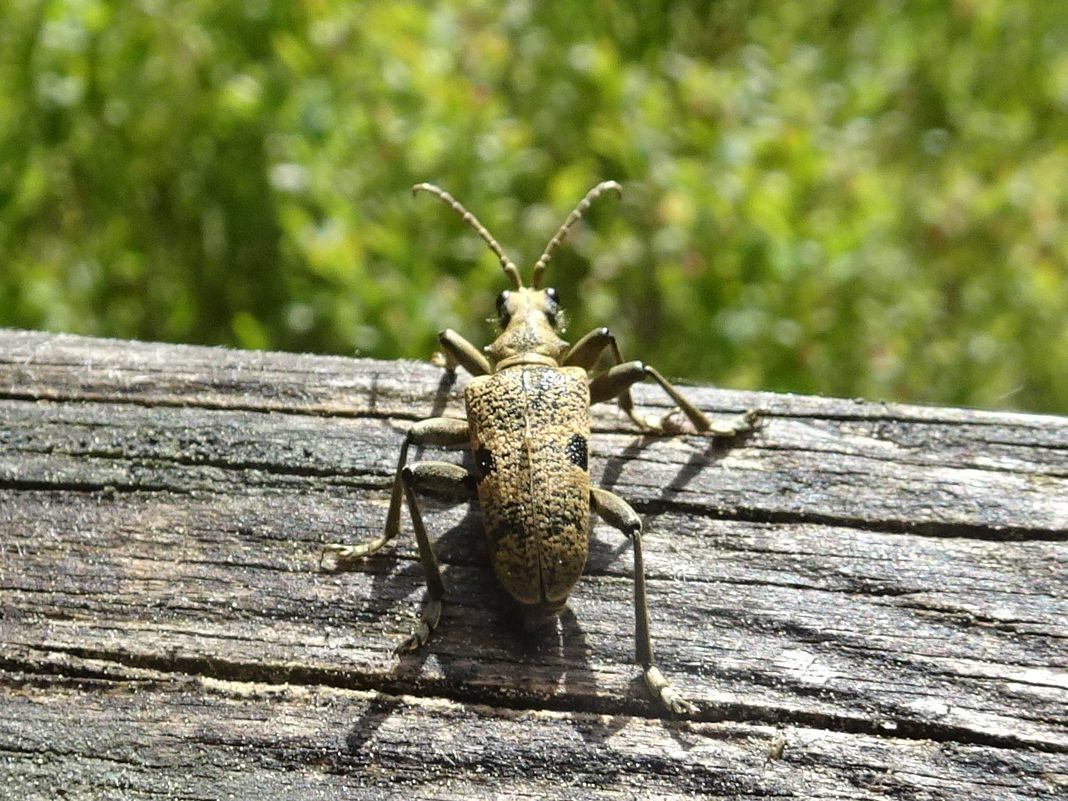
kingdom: Animalia
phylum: Arthropoda
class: Insecta
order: Coleoptera
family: Cerambycidae
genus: Rhagium
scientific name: Rhagium mordax
